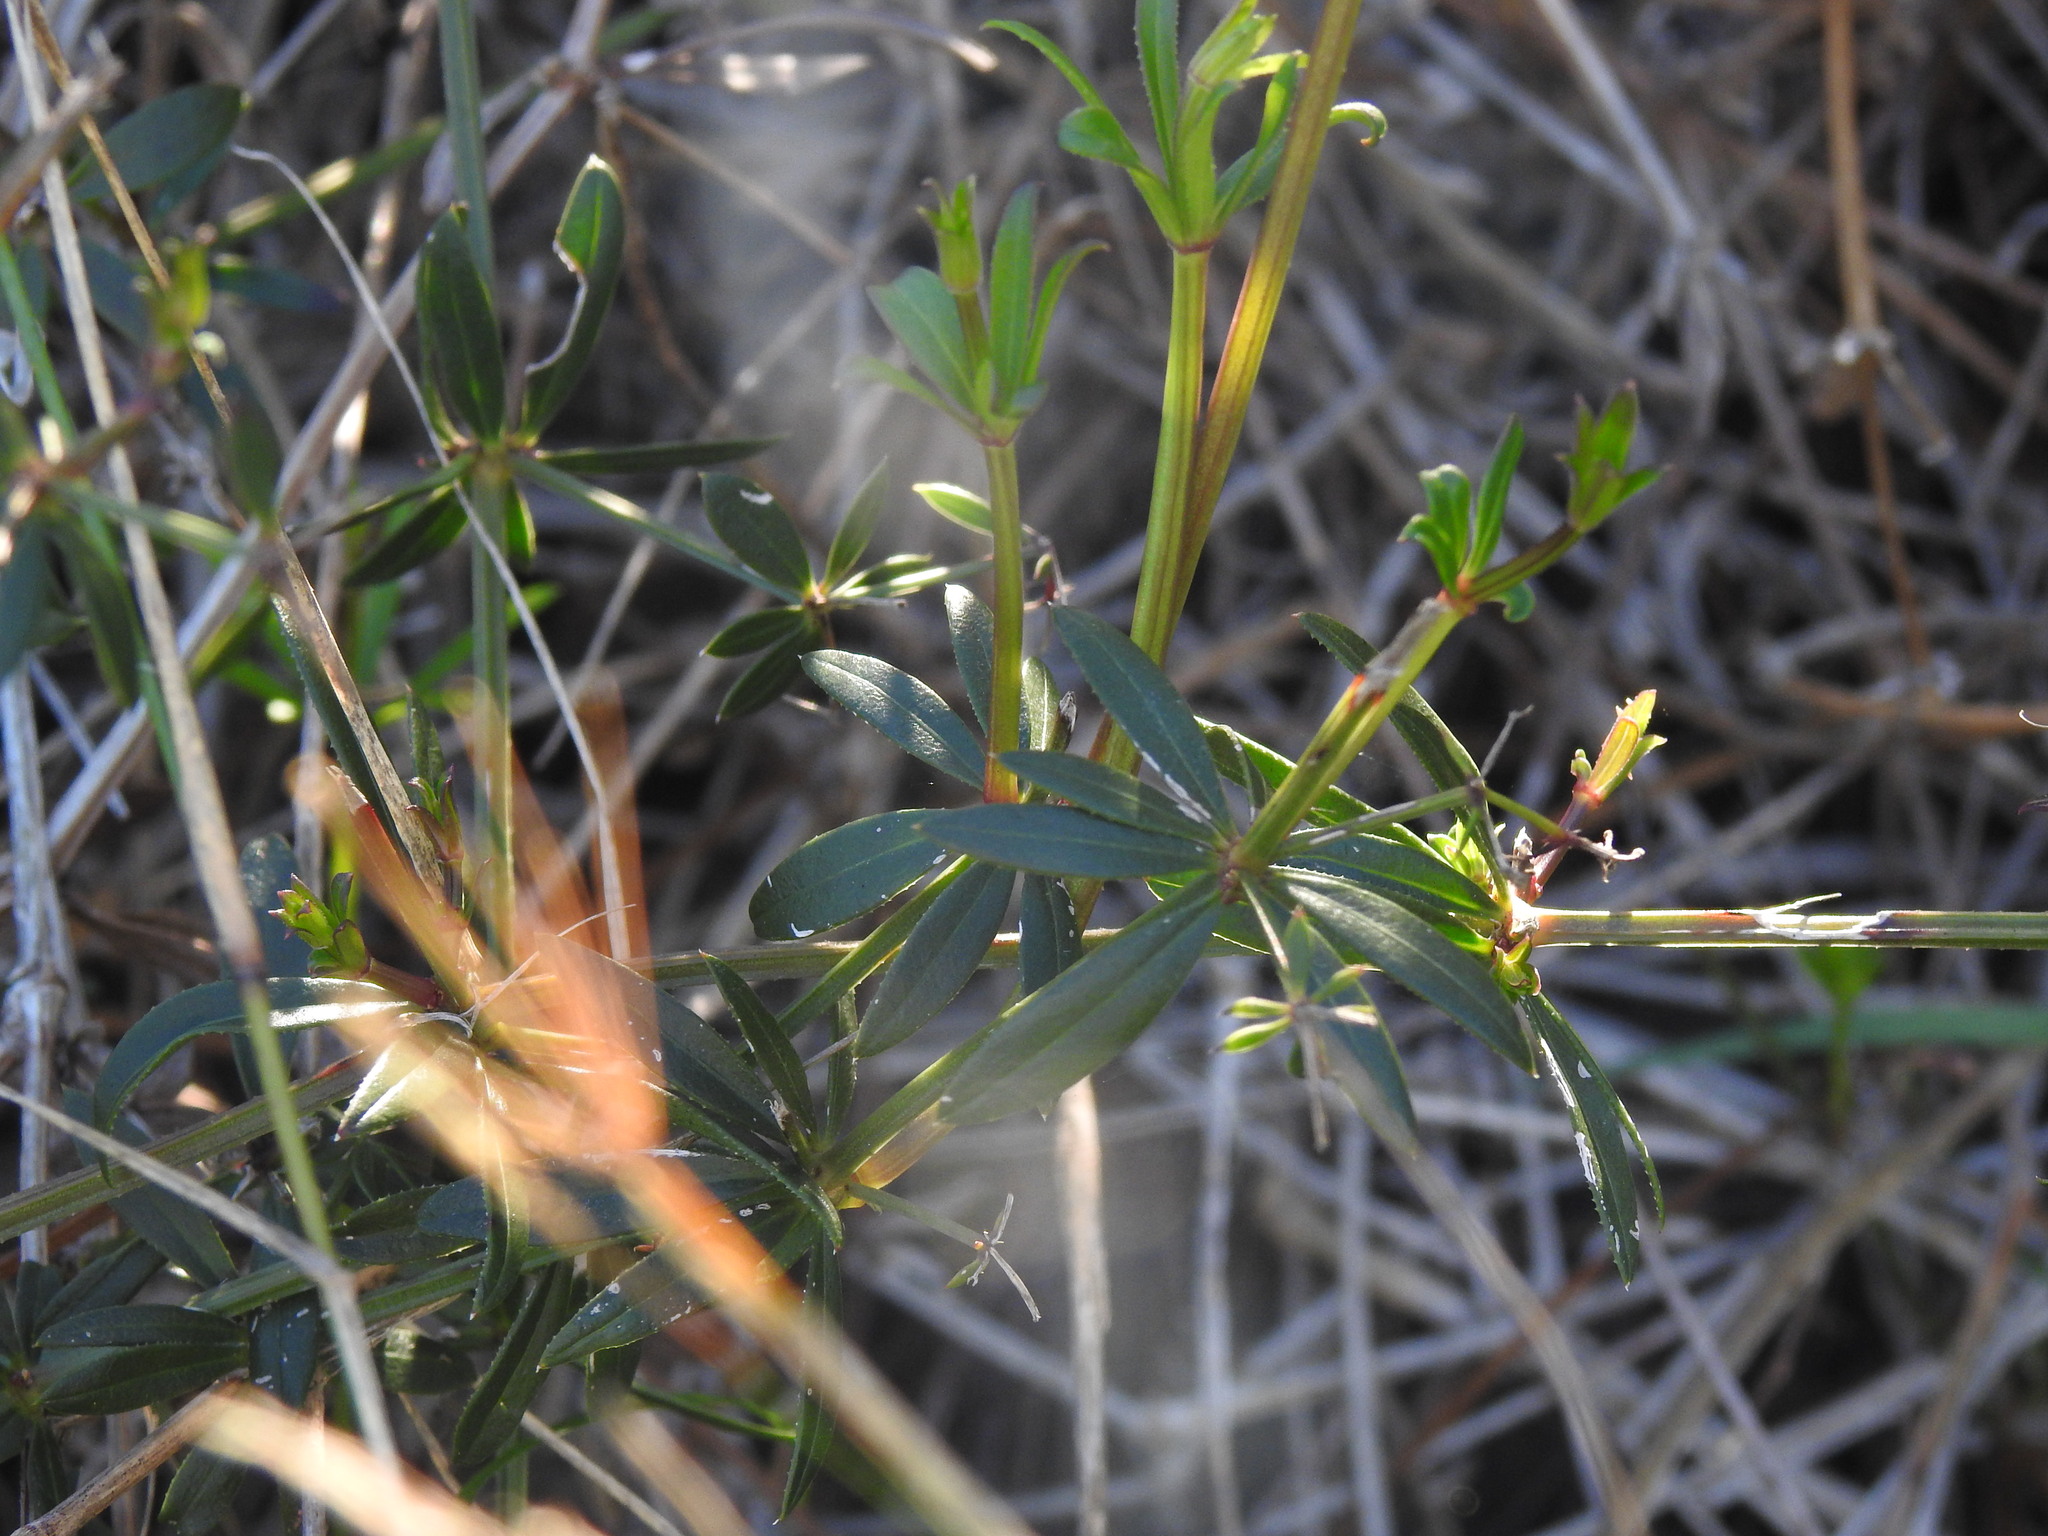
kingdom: Plantae
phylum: Tracheophyta
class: Magnoliopsida
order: Gentianales
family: Rubiaceae
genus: Rubia
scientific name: Rubia peregrina
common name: Wild madder
